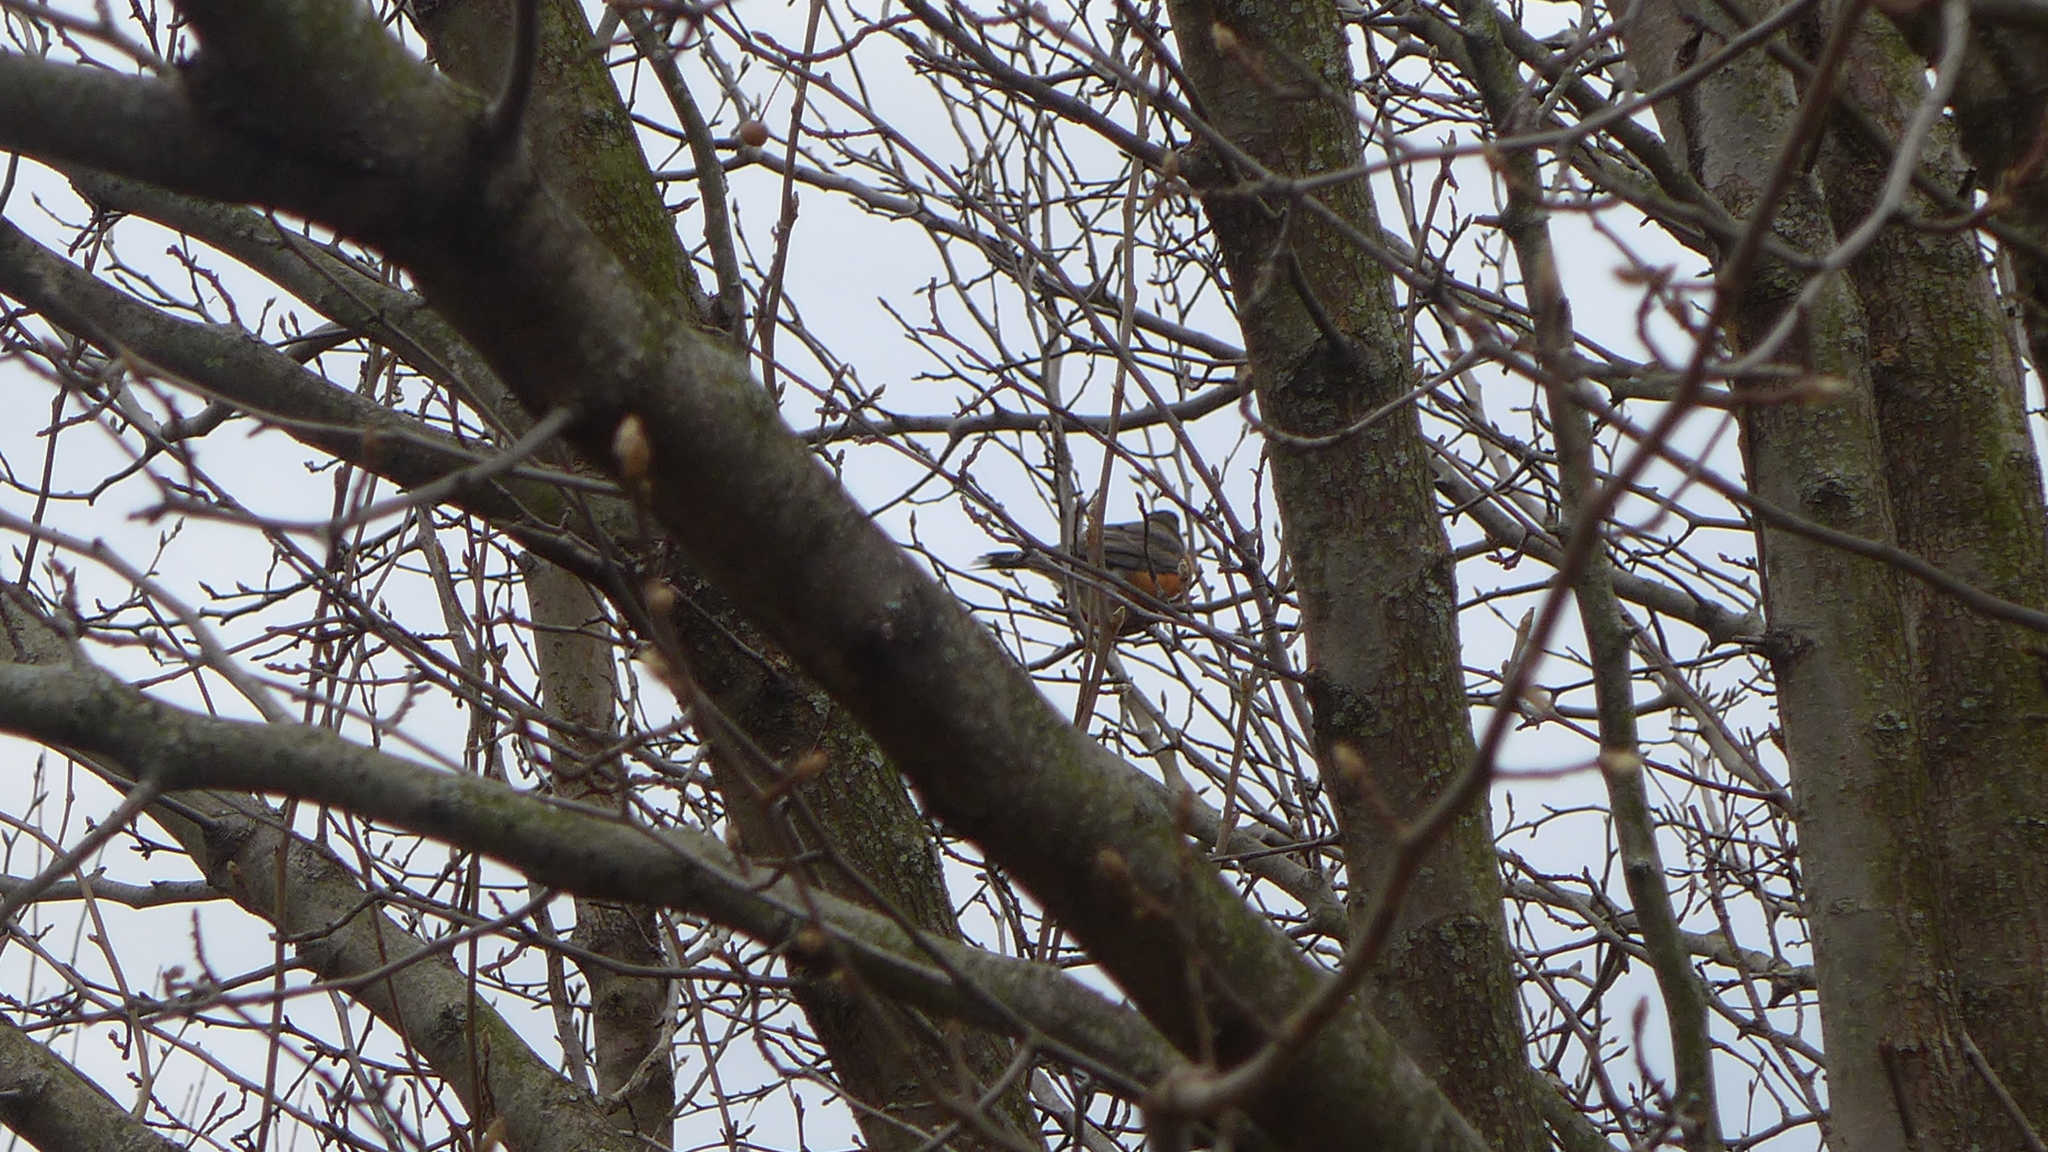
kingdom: Animalia
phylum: Chordata
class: Aves
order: Passeriformes
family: Turdidae
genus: Turdus
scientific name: Turdus migratorius
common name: American robin
